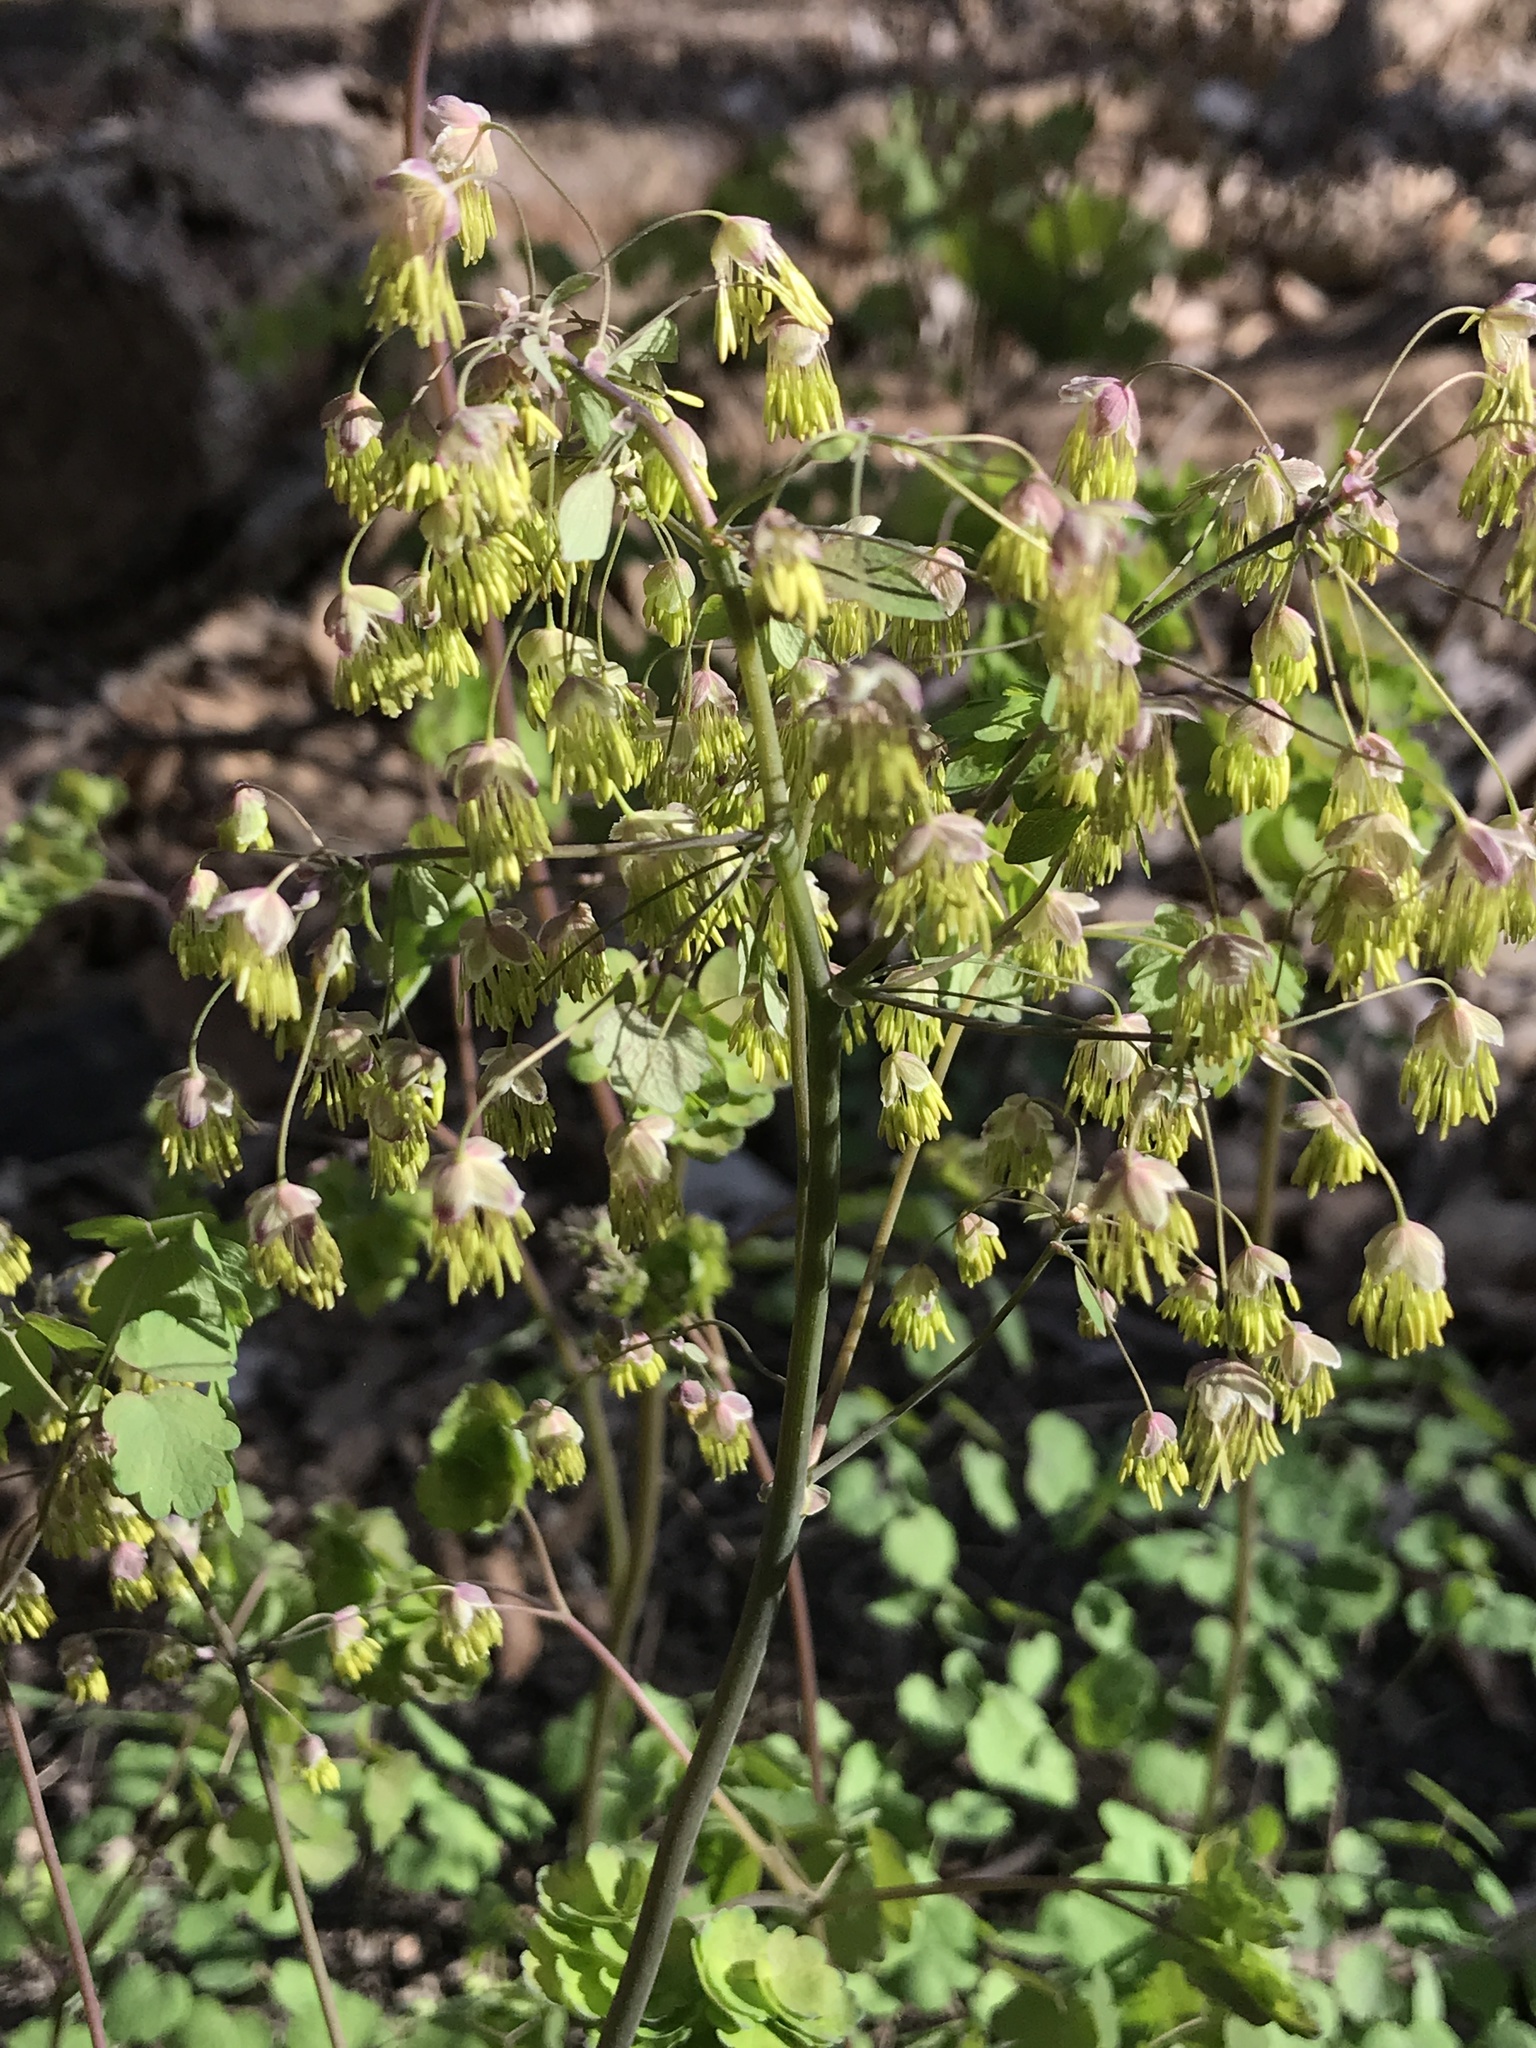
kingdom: Plantae
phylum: Tracheophyta
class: Magnoliopsida
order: Ranunculales
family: Ranunculaceae
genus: Thalictrum
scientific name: Thalictrum dioicum
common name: Early meadow-rue
